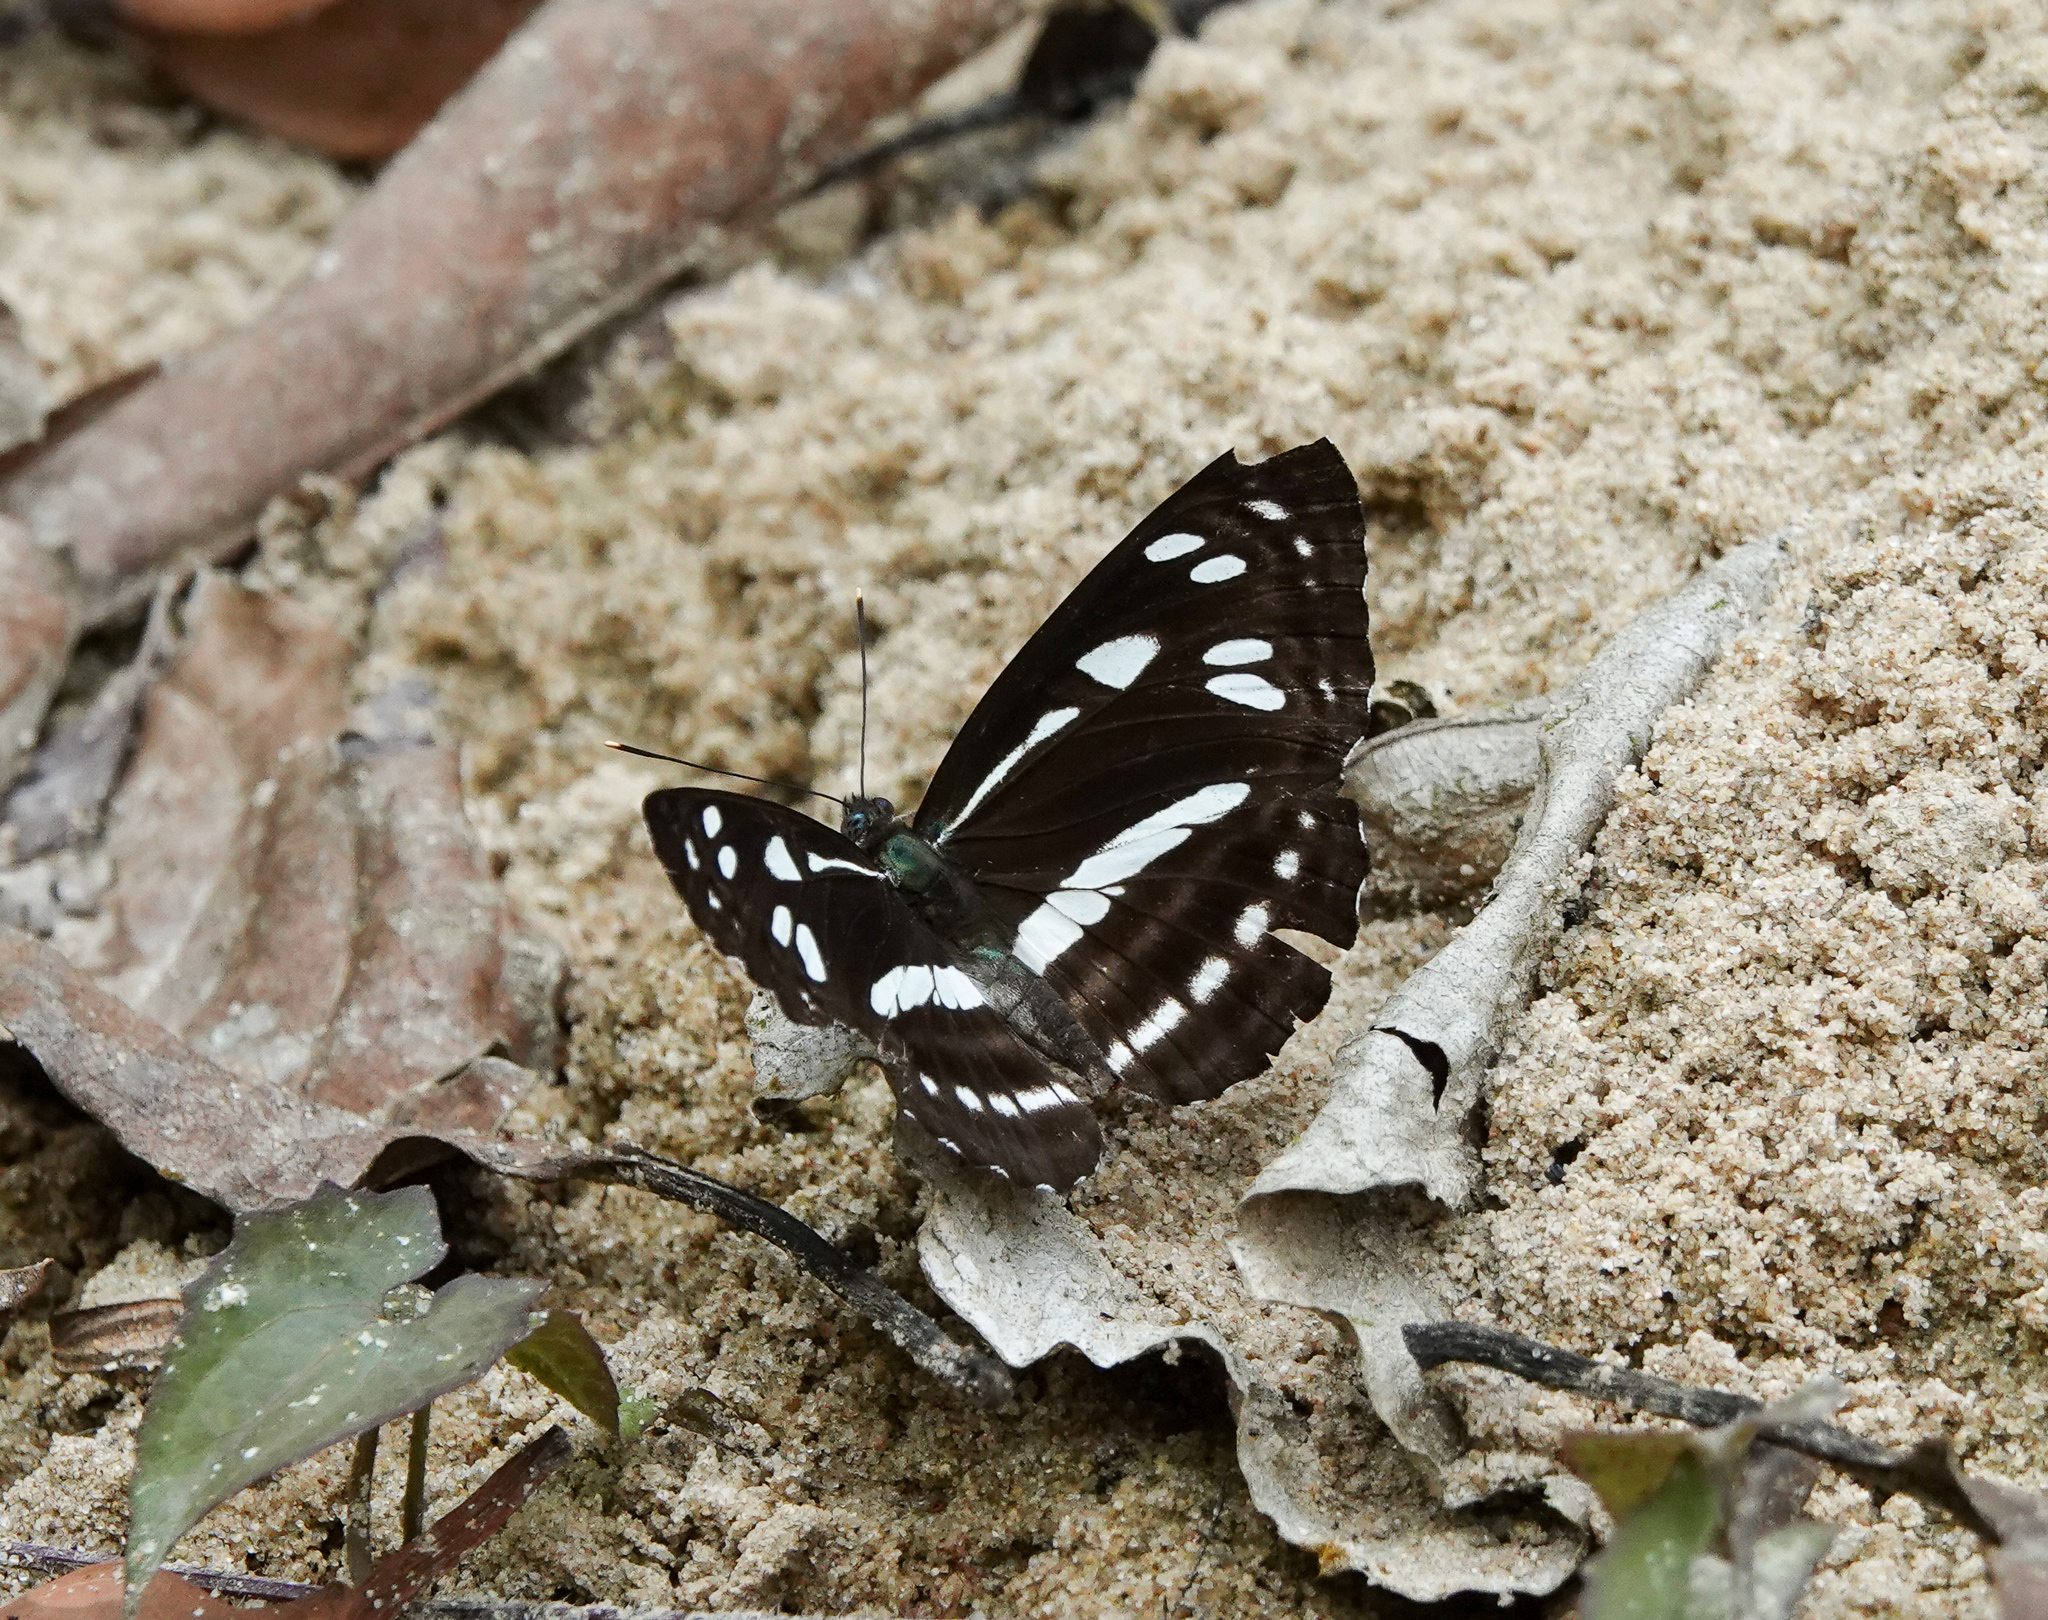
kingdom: Animalia
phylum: Arthropoda
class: Insecta
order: Lepidoptera
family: Nymphalidae
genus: Neptis
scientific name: Neptis clinia
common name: Southern sullied sailer
